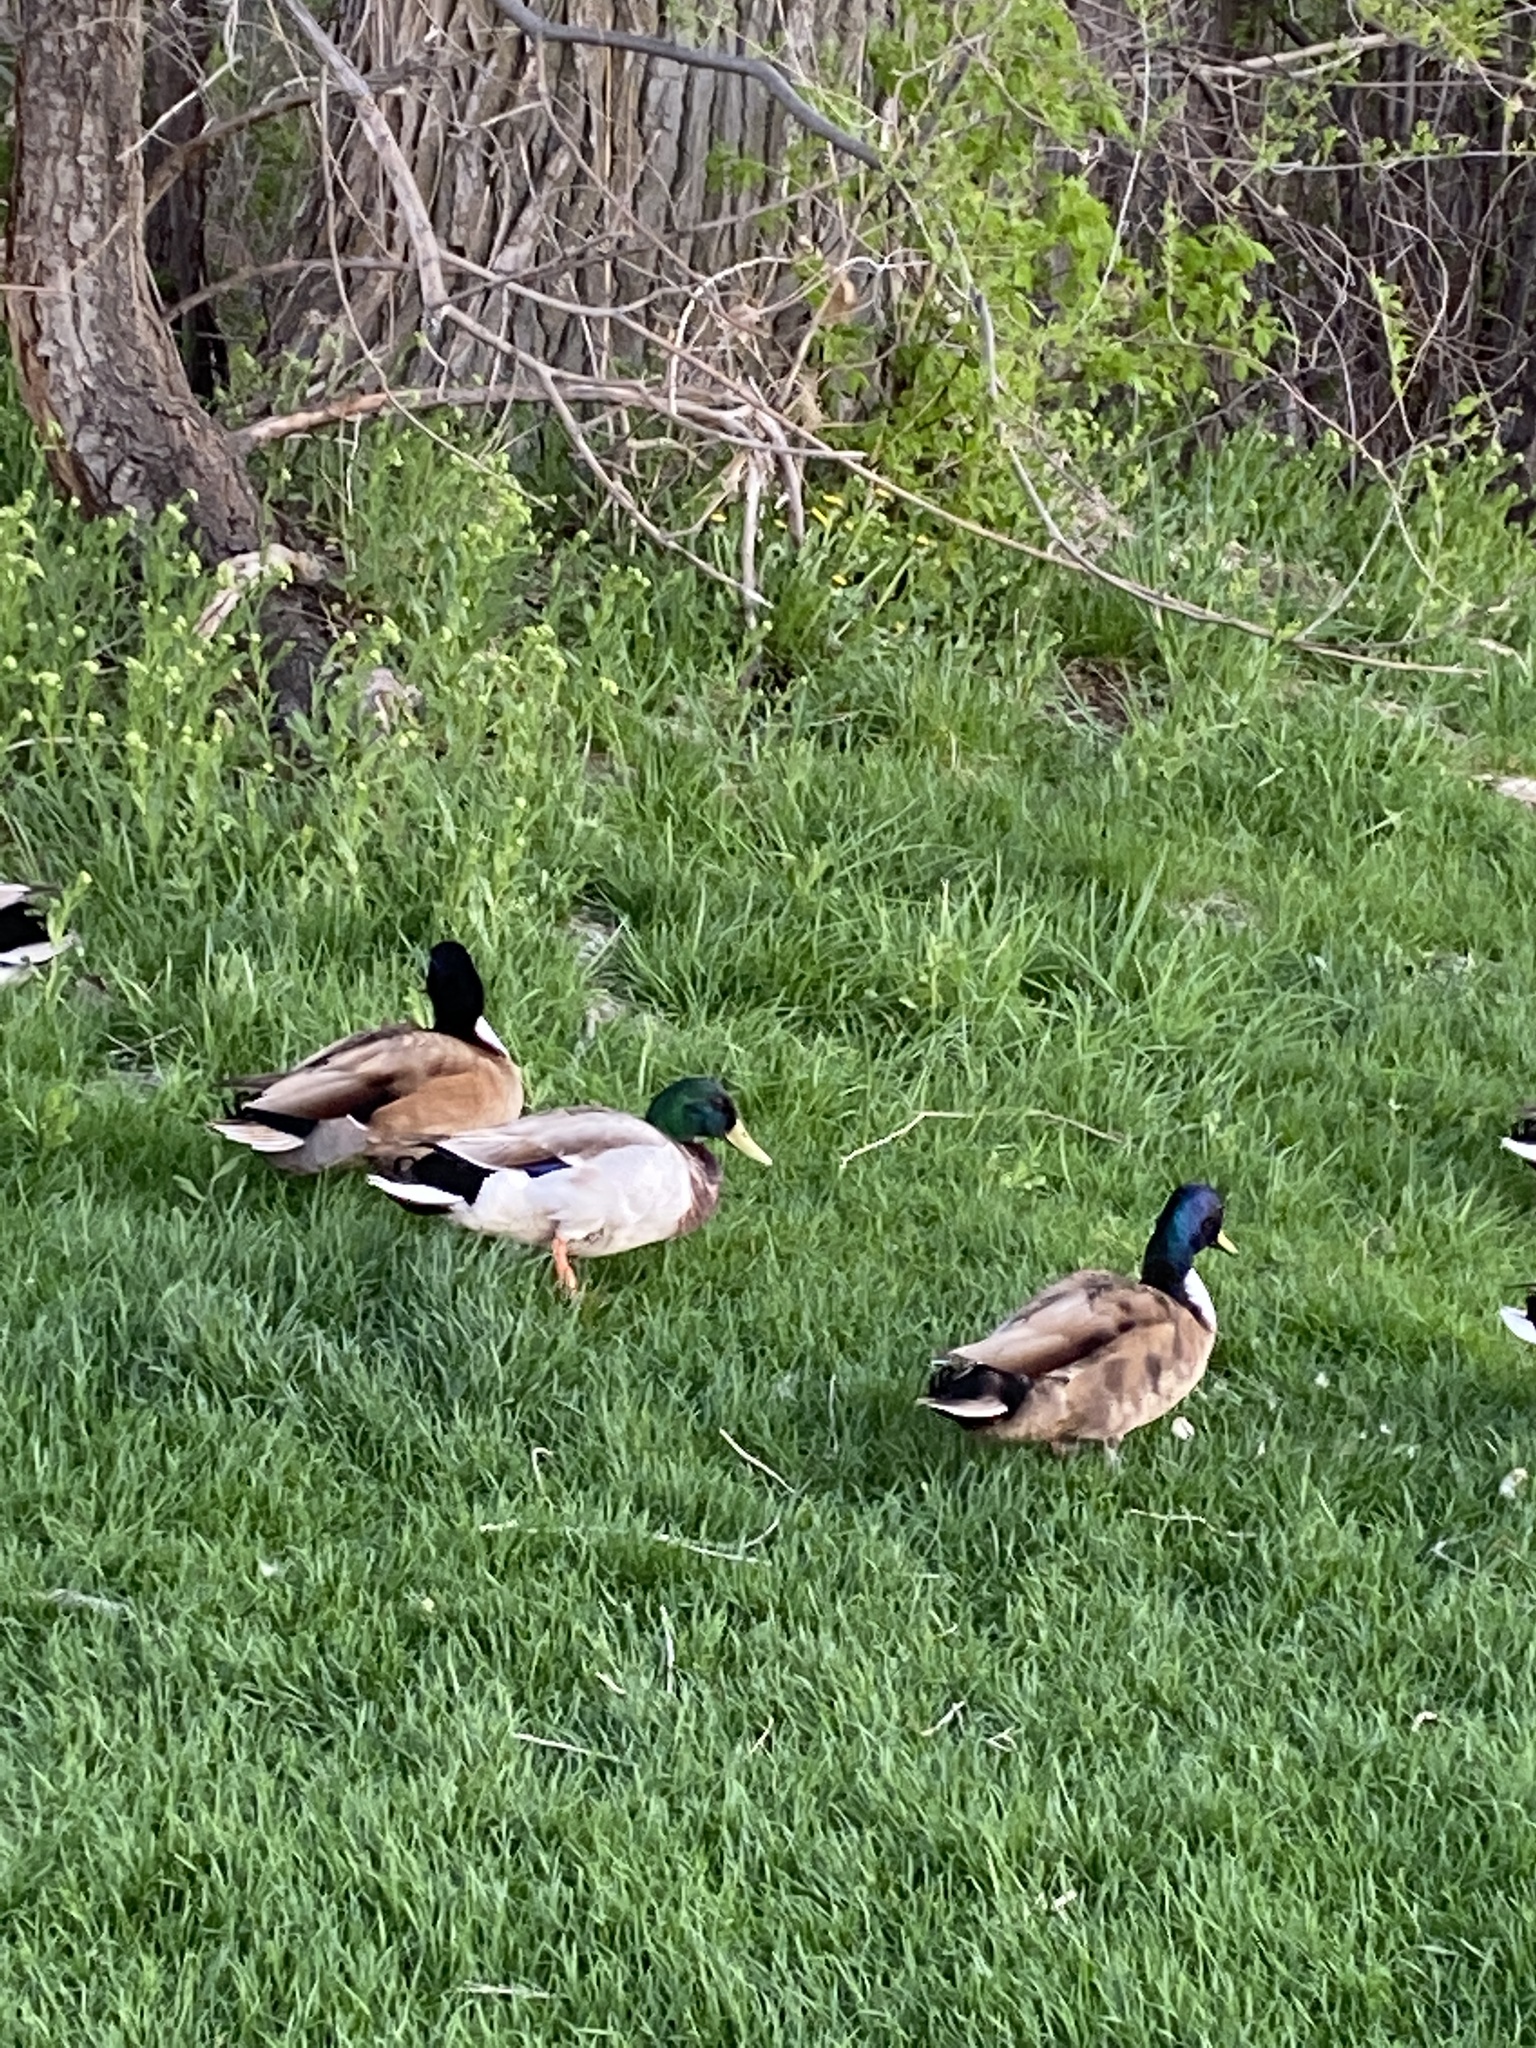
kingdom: Animalia
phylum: Chordata
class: Aves
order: Anseriformes
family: Anatidae
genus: Anas
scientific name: Anas platyrhynchos
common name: Mallard
